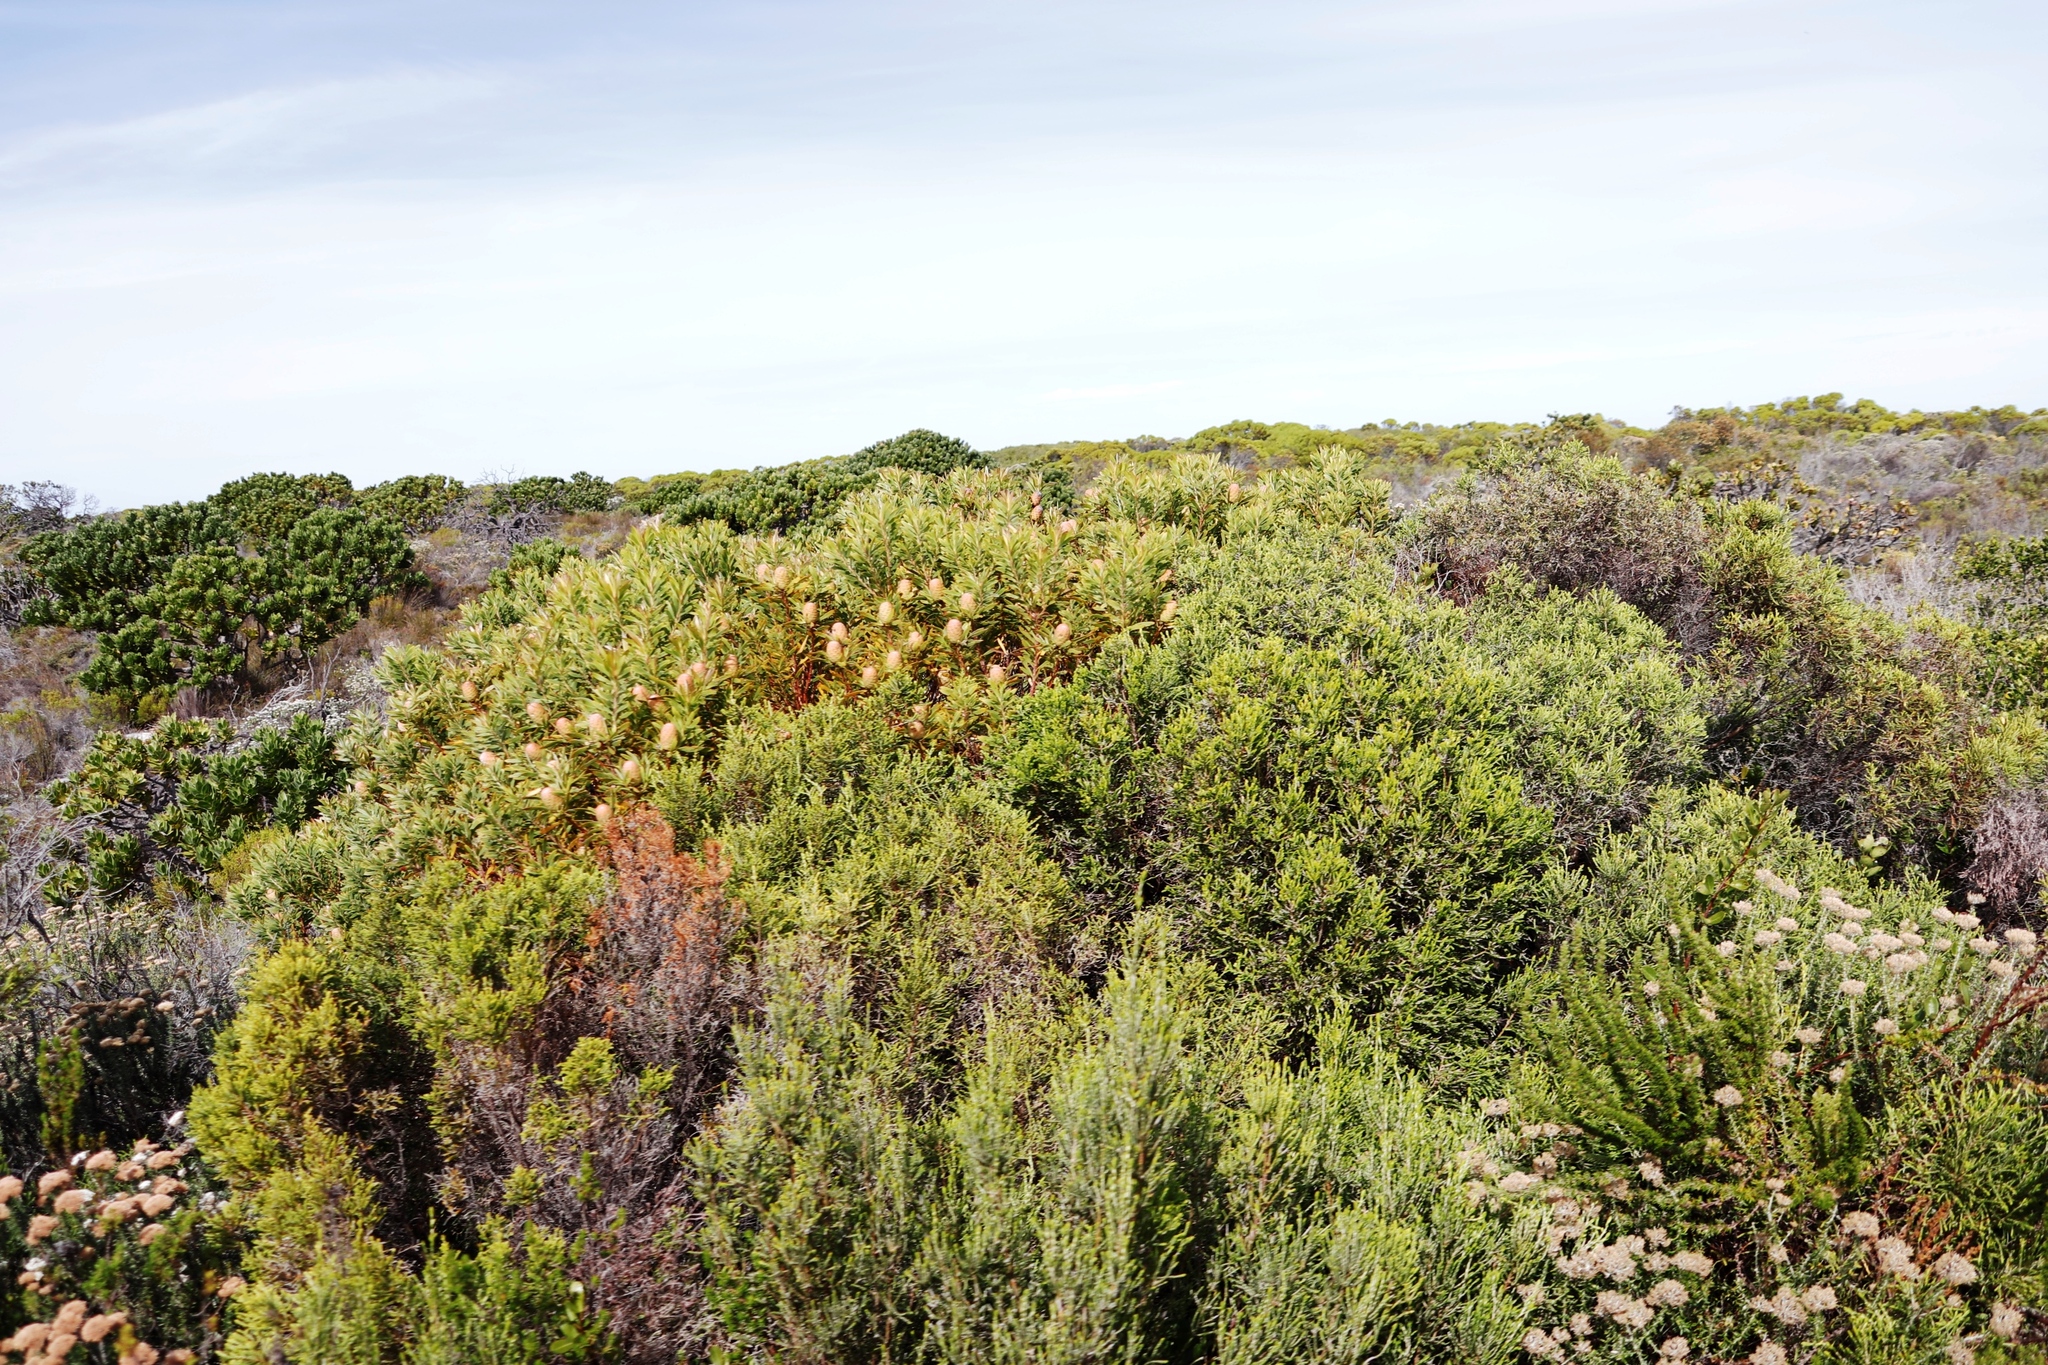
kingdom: Plantae
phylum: Tracheophyta
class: Magnoliopsida
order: Proteales
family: Proteaceae
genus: Leucadendron
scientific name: Leucadendron coniferum
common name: Dune conebush
